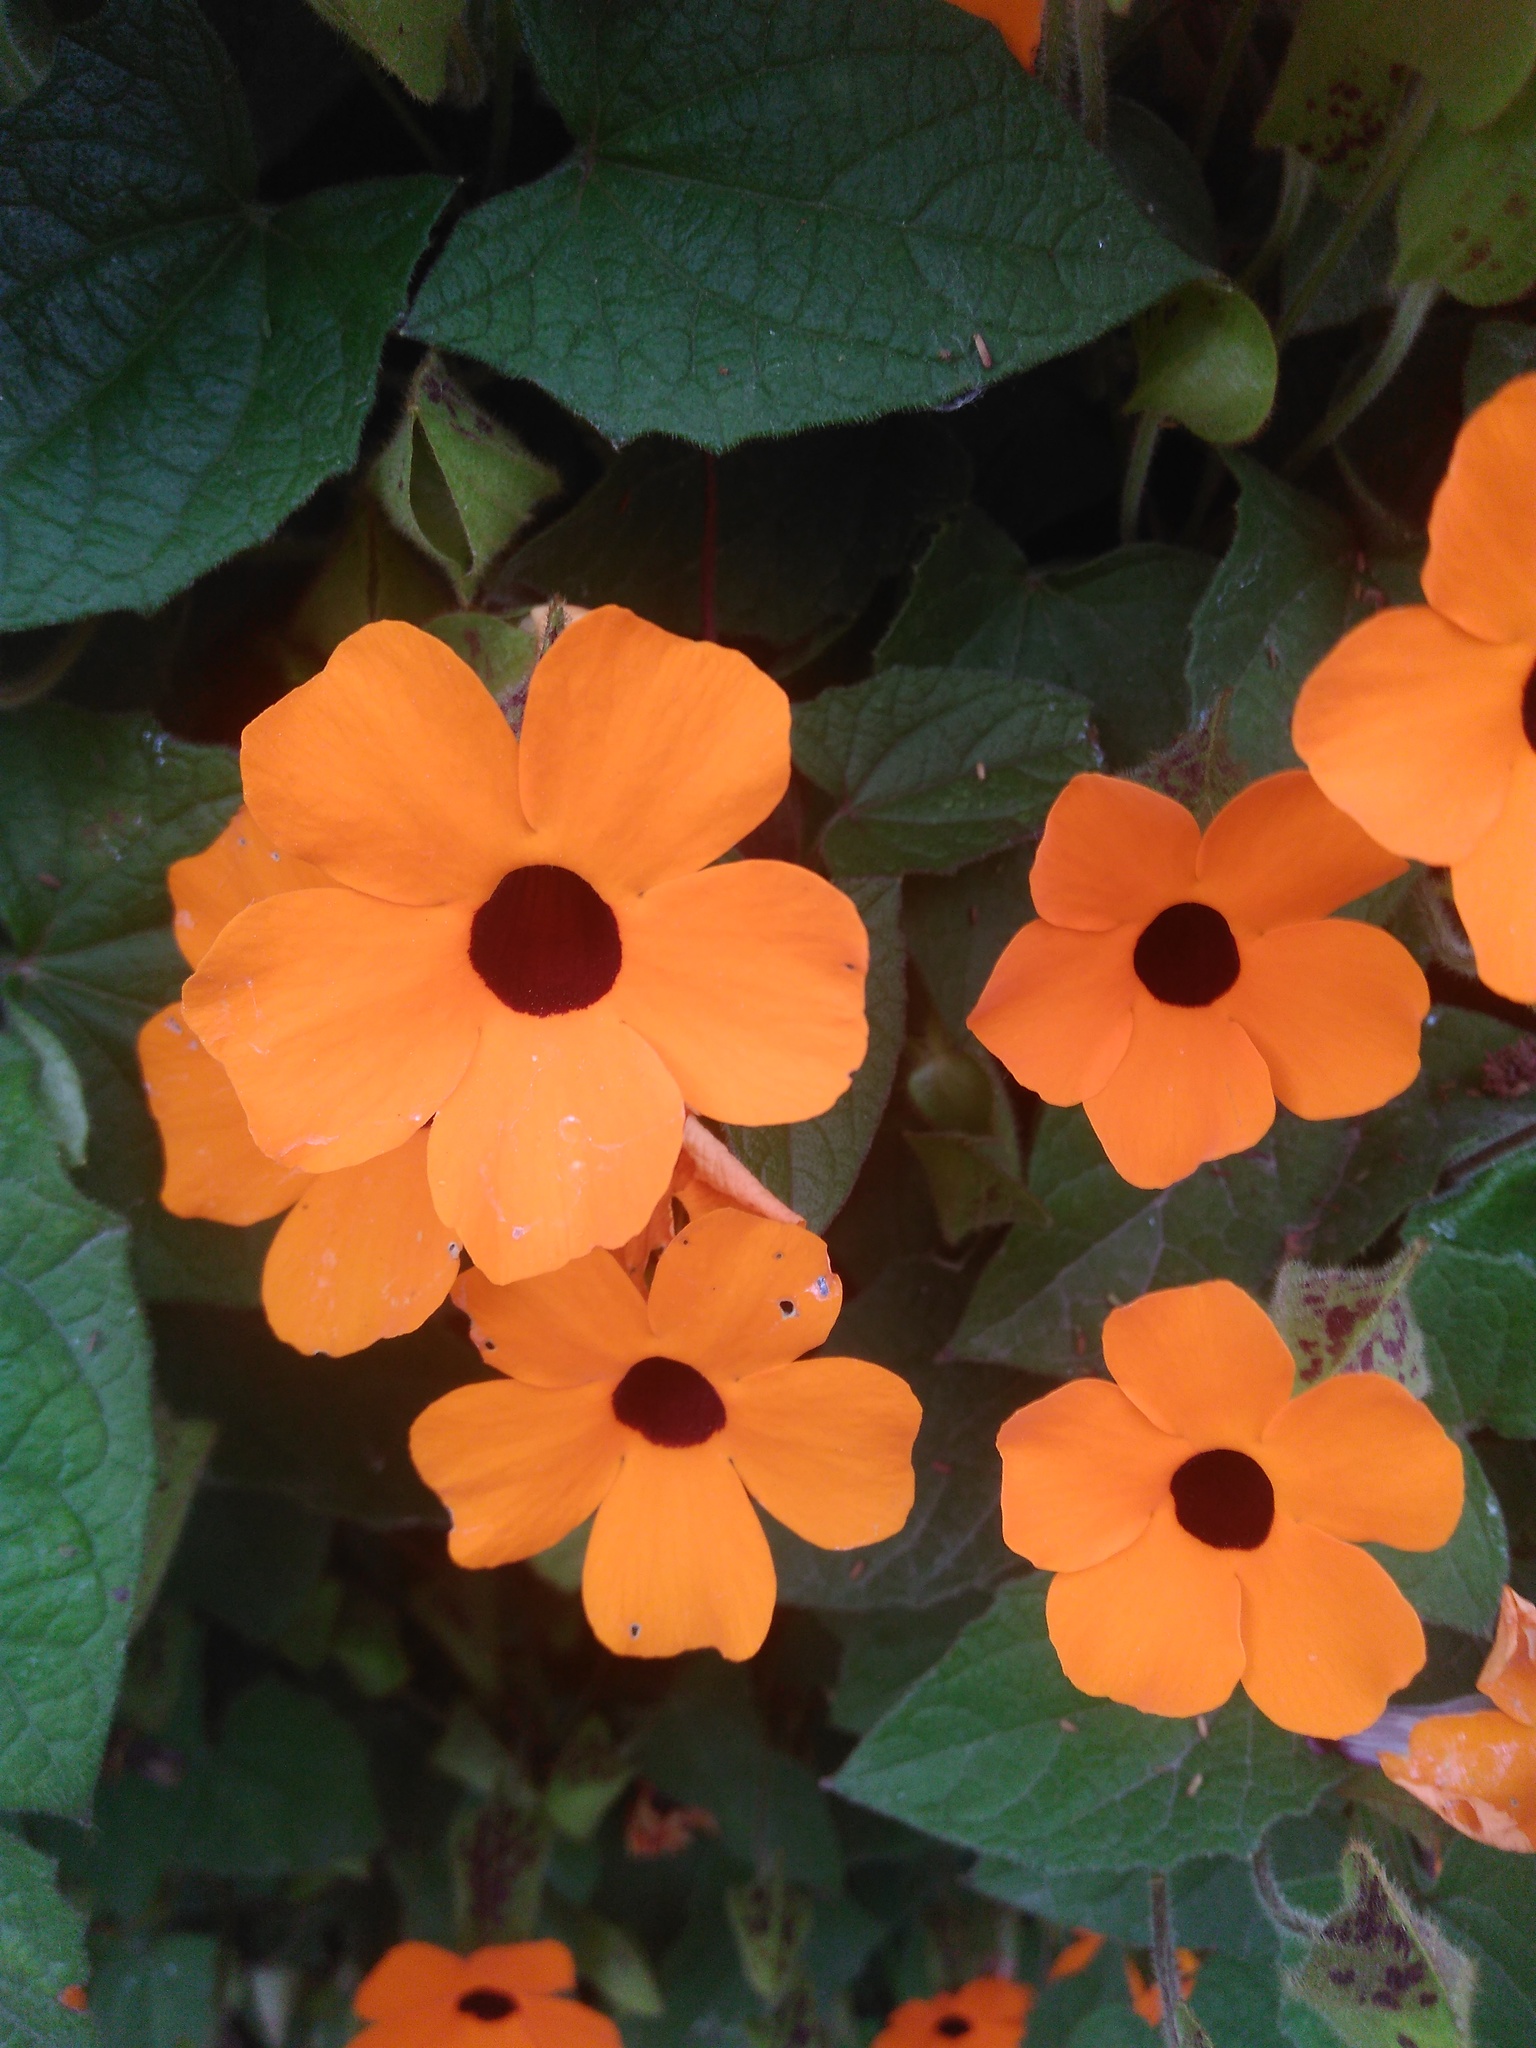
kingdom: Plantae
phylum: Tracheophyta
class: Magnoliopsida
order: Lamiales
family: Acanthaceae
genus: Thunbergia
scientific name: Thunbergia alata
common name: Blackeyed susan vine
